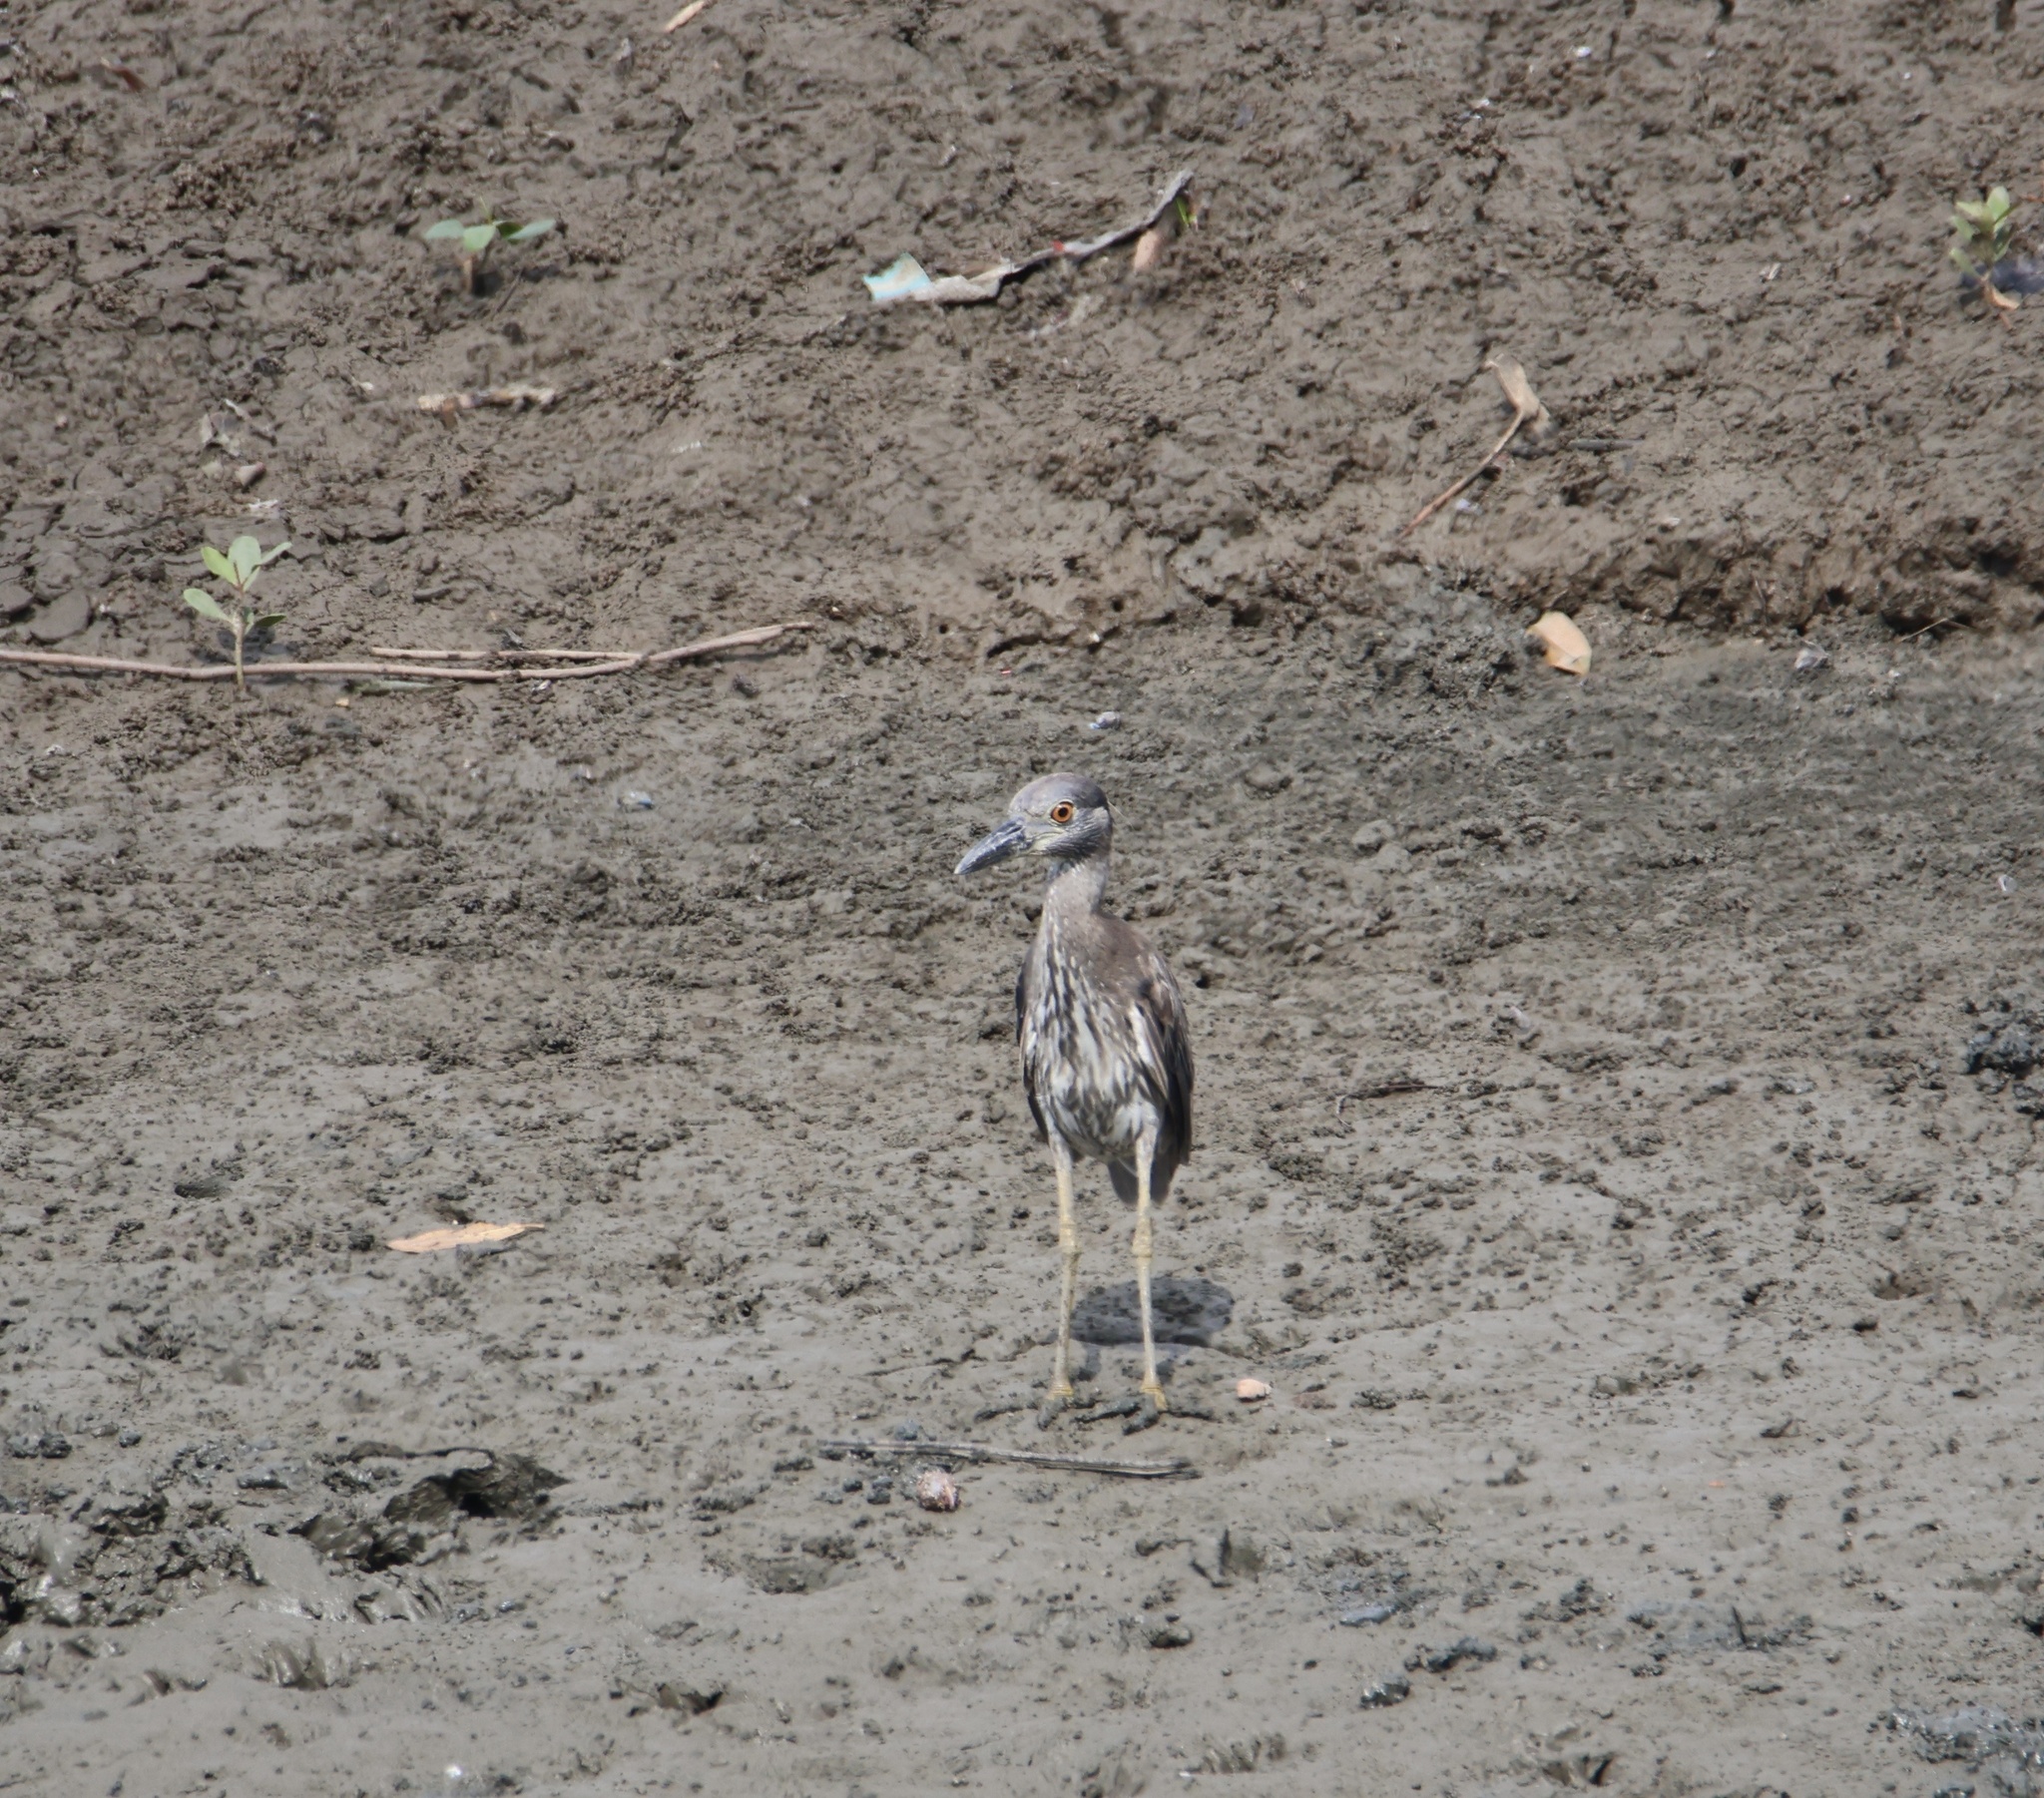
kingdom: Animalia
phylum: Chordata
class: Aves
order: Pelecaniformes
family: Ardeidae
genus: Nyctanassa
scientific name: Nyctanassa violacea
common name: Yellow-crowned night heron
